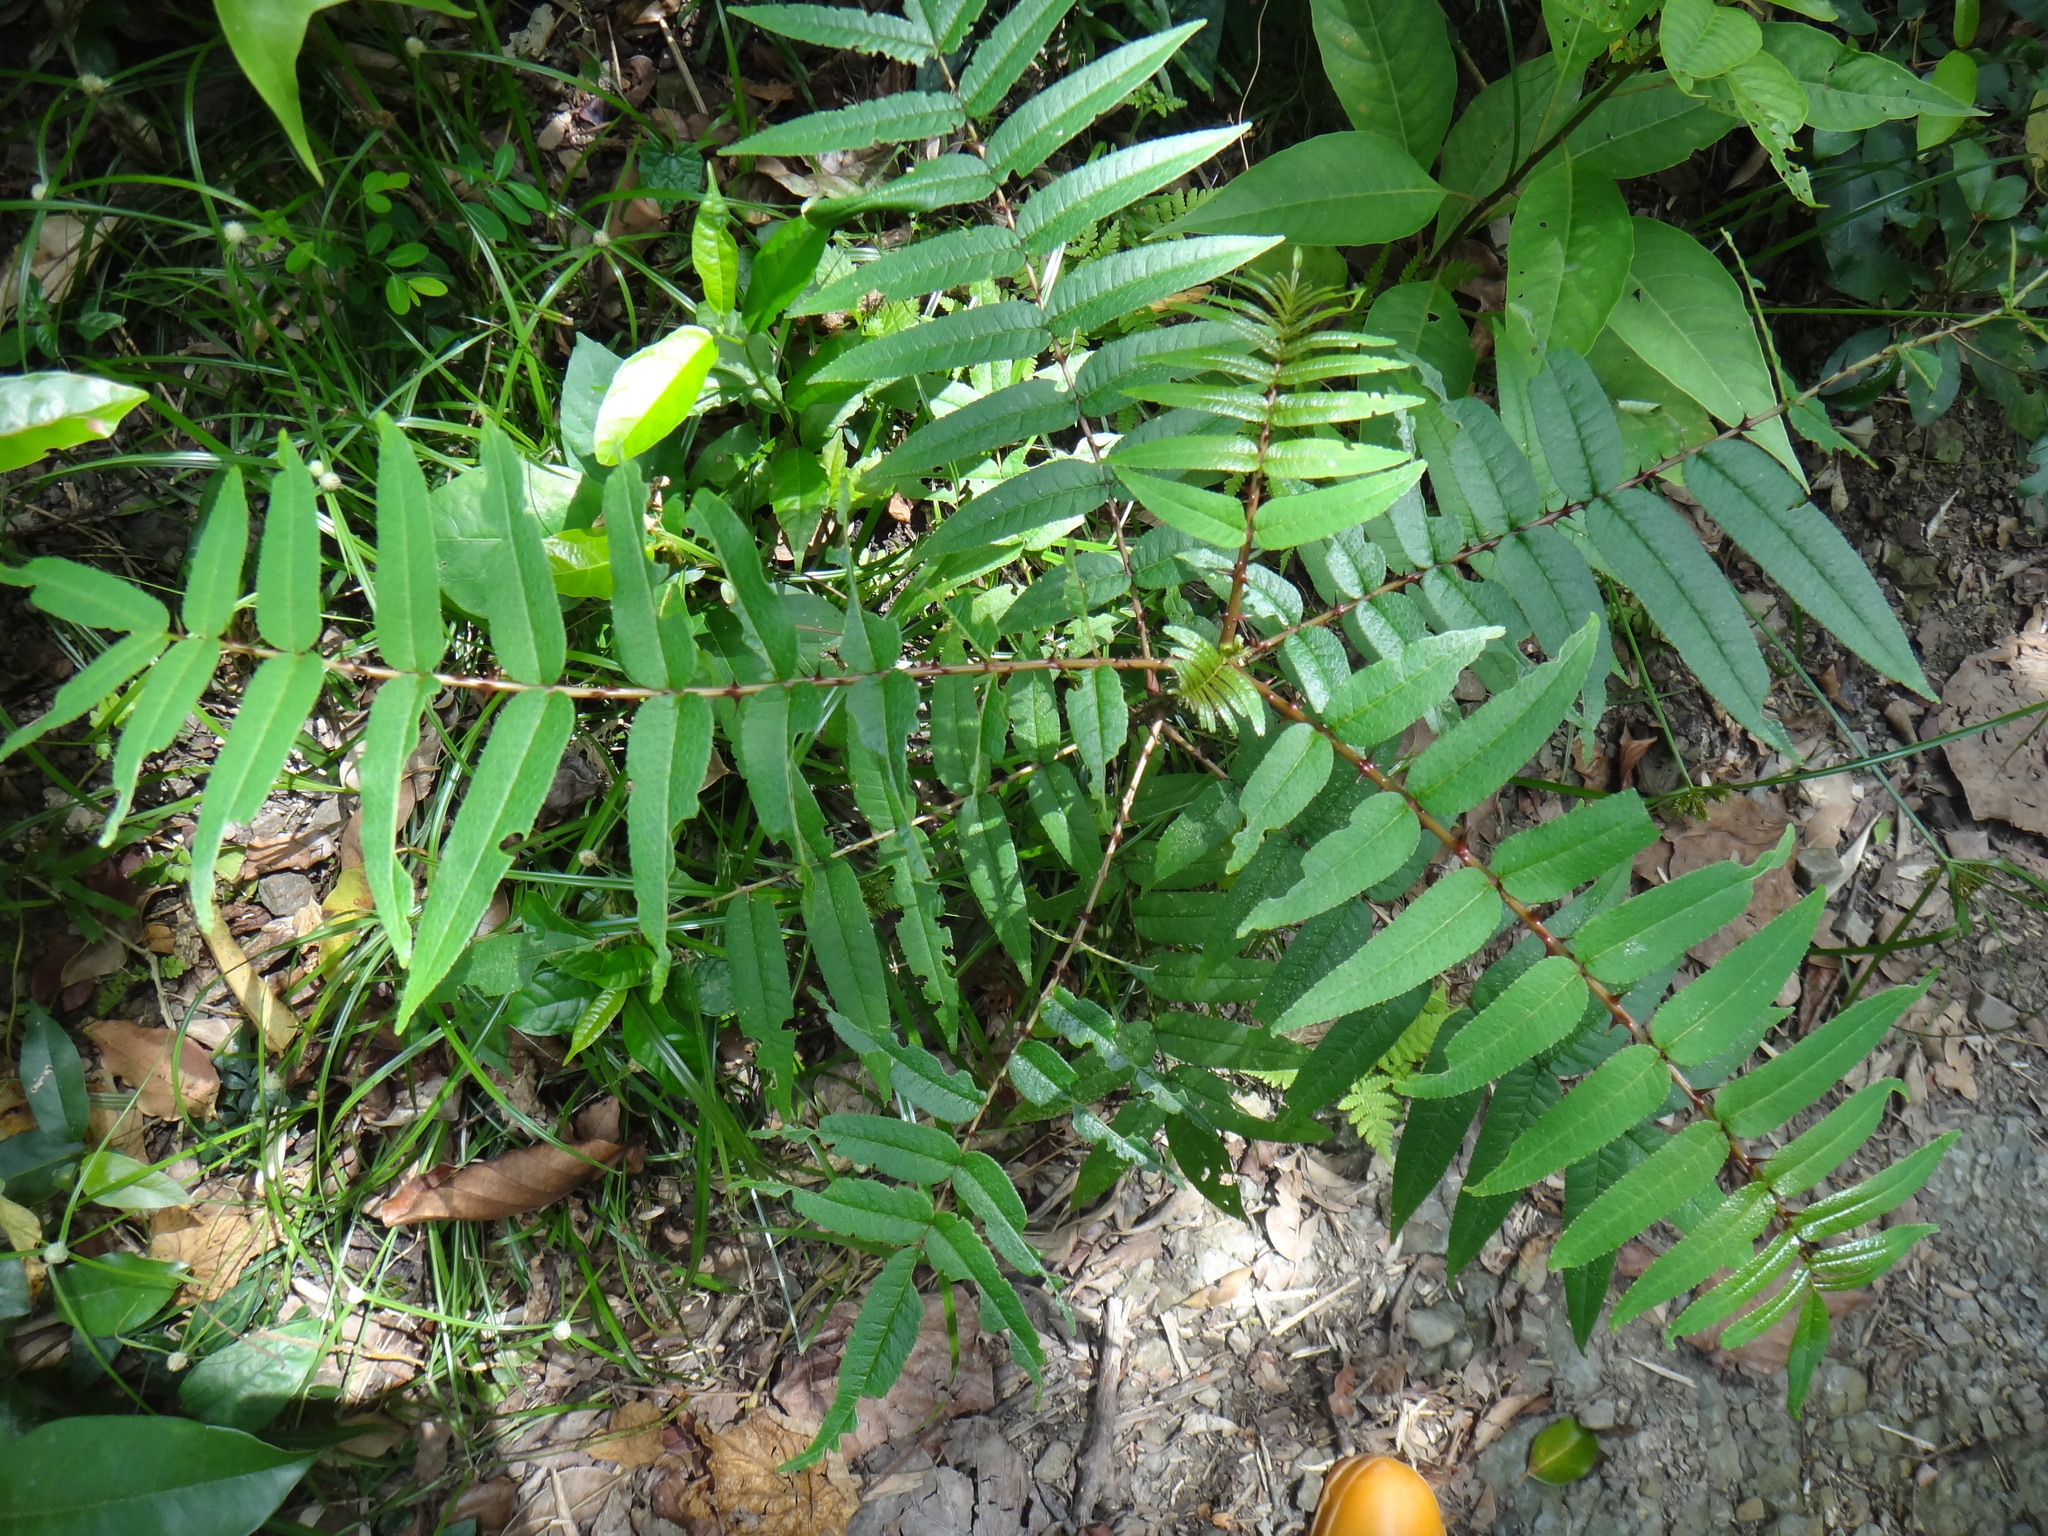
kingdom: Plantae
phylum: Tracheophyta
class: Magnoliopsida
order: Sapindales
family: Rutaceae
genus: Zanthoxylum
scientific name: Zanthoxylum ailanthoides
